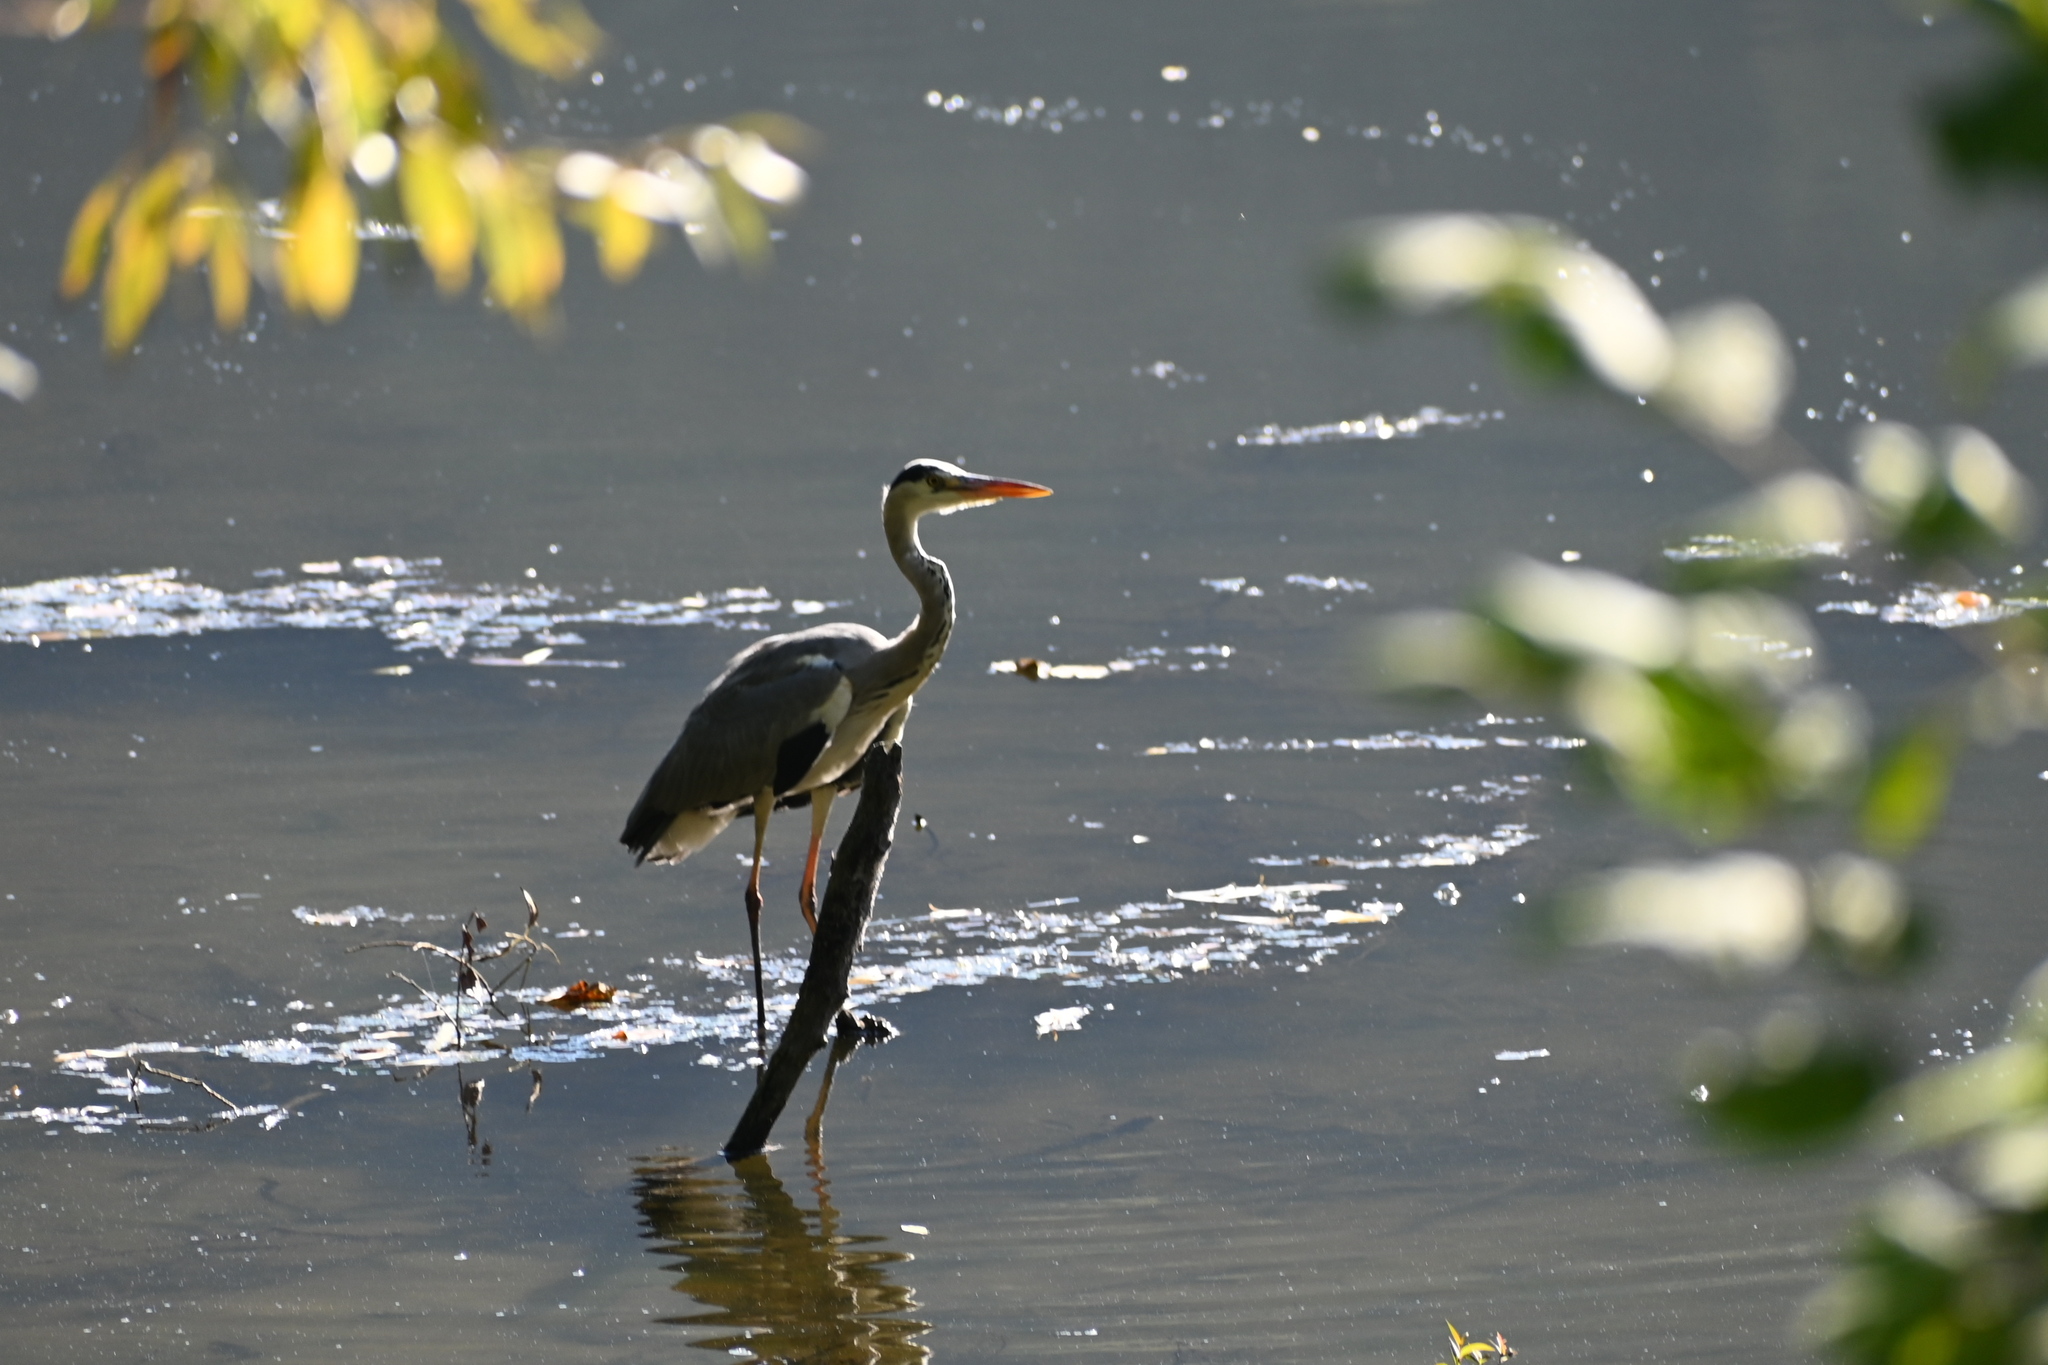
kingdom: Animalia
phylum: Chordata
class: Aves
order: Pelecaniformes
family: Ardeidae
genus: Ardea
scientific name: Ardea cinerea
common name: Grey heron
